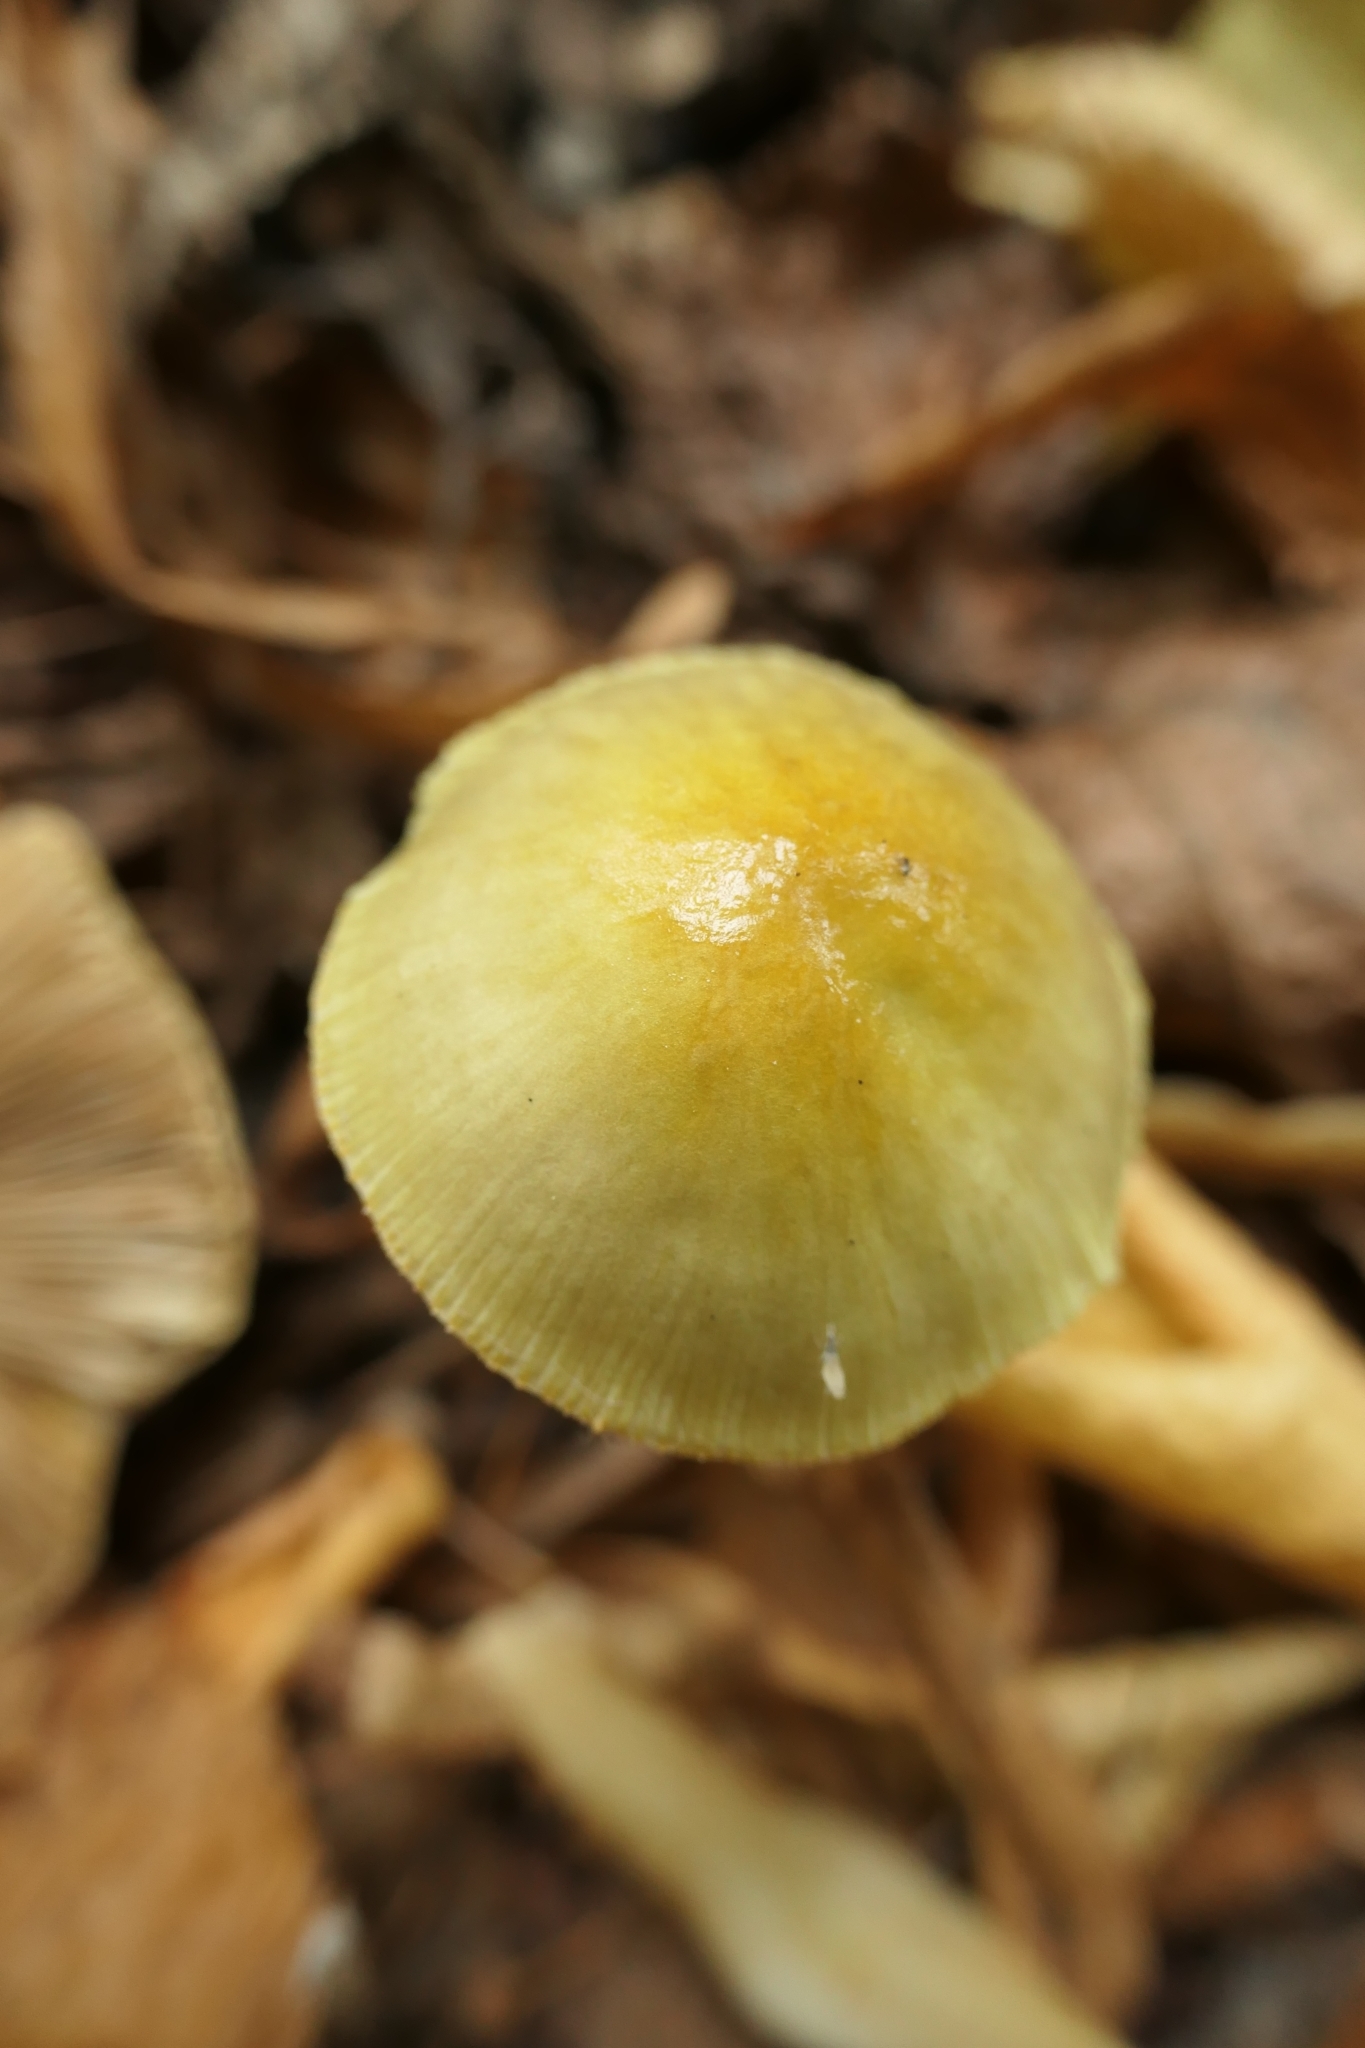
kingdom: Fungi
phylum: Basidiomycota
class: Agaricomycetes
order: Agaricales
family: Bolbitiaceae
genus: Bolbitius
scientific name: Bolbitius titubans
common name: Yellow fieldcap
